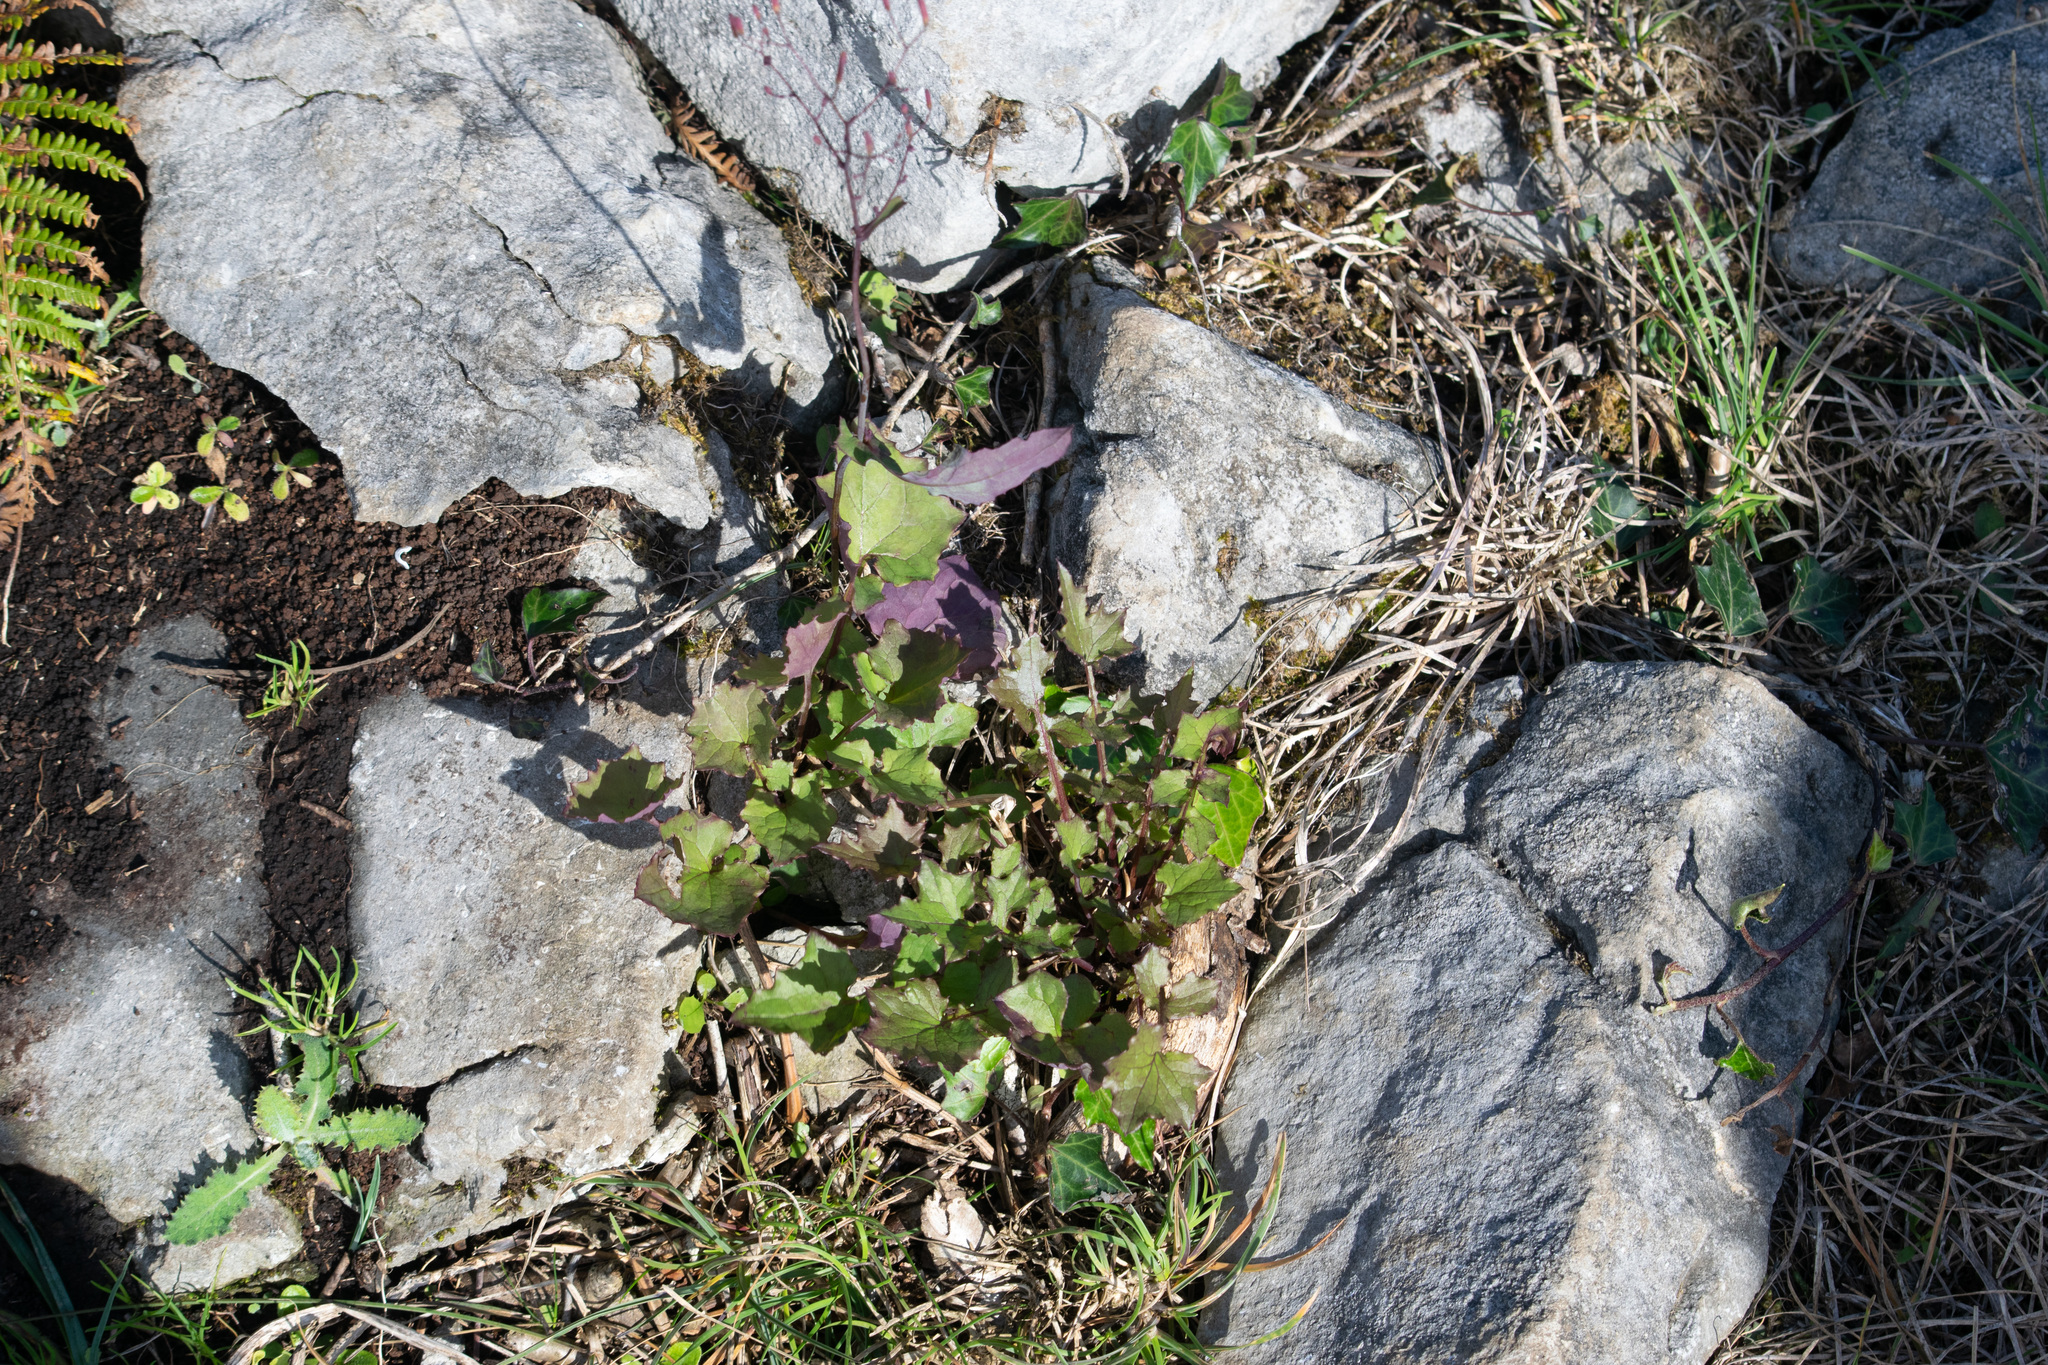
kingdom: Plantae
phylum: Tracheophyta
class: Magnoliopsida
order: Asterales
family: Asteraceae
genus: Mycelis
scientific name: Mycelis muralis
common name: Wall lettuce
